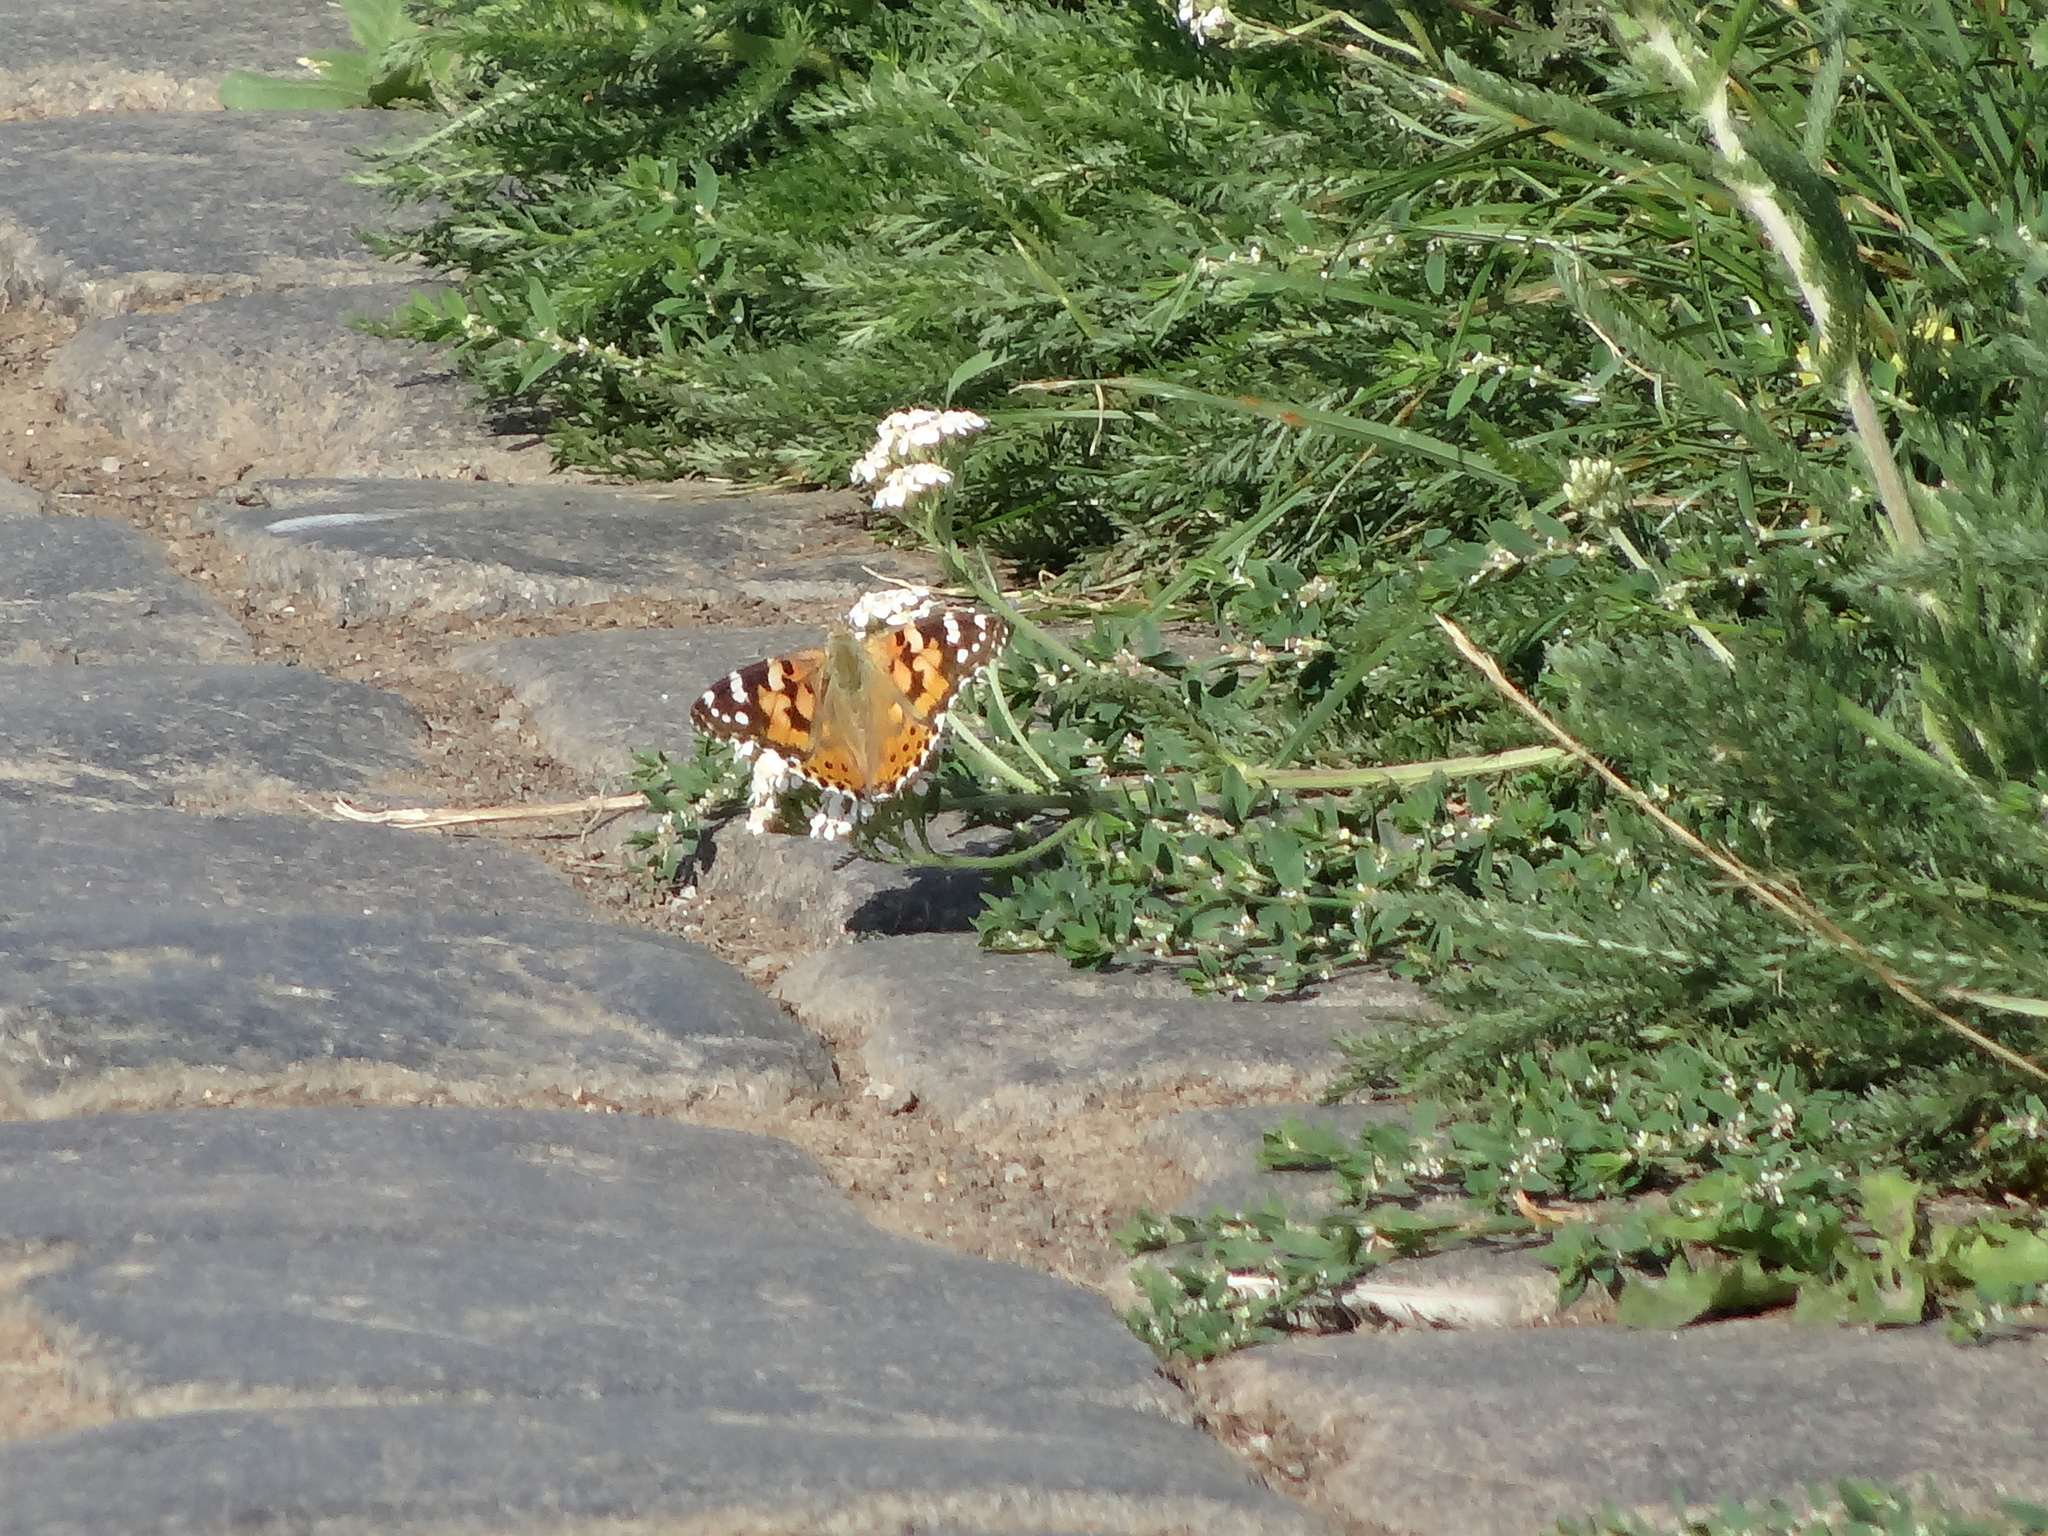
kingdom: Animalia
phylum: Arthropoda
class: Insecta
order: Lepidoptera
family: Nymphalidae
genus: Vanessa
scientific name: Vanessa cardui
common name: Painted lady
